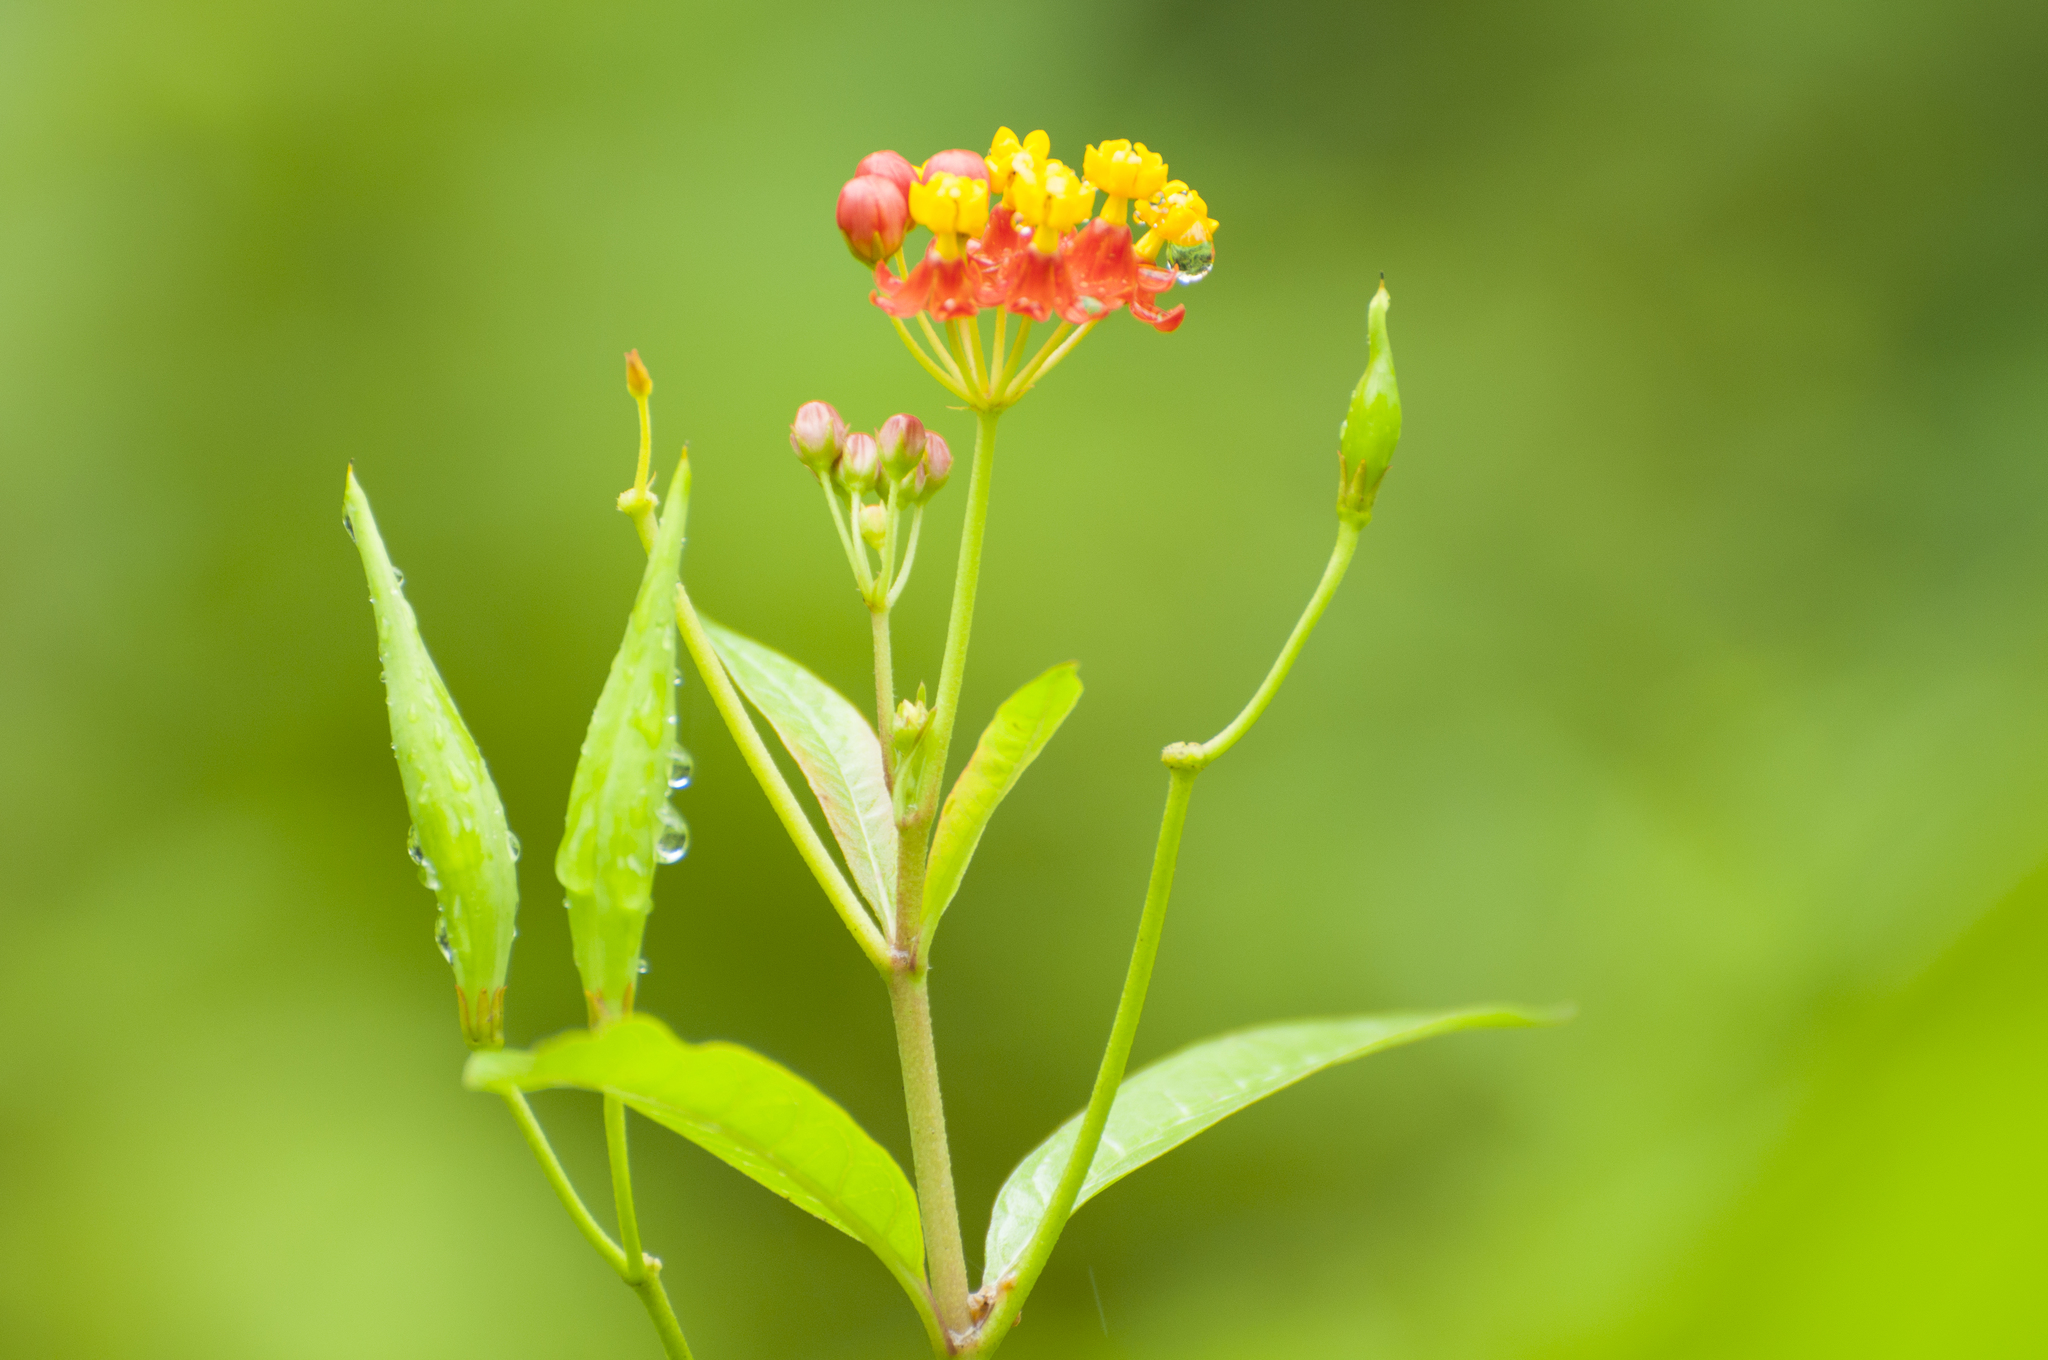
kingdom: Plantae
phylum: Tracheophyta
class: Magnoliopsida
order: Gentianales
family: Apocynaceae
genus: Asclepias
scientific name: Asclepias curassavica
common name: Bloodflower
